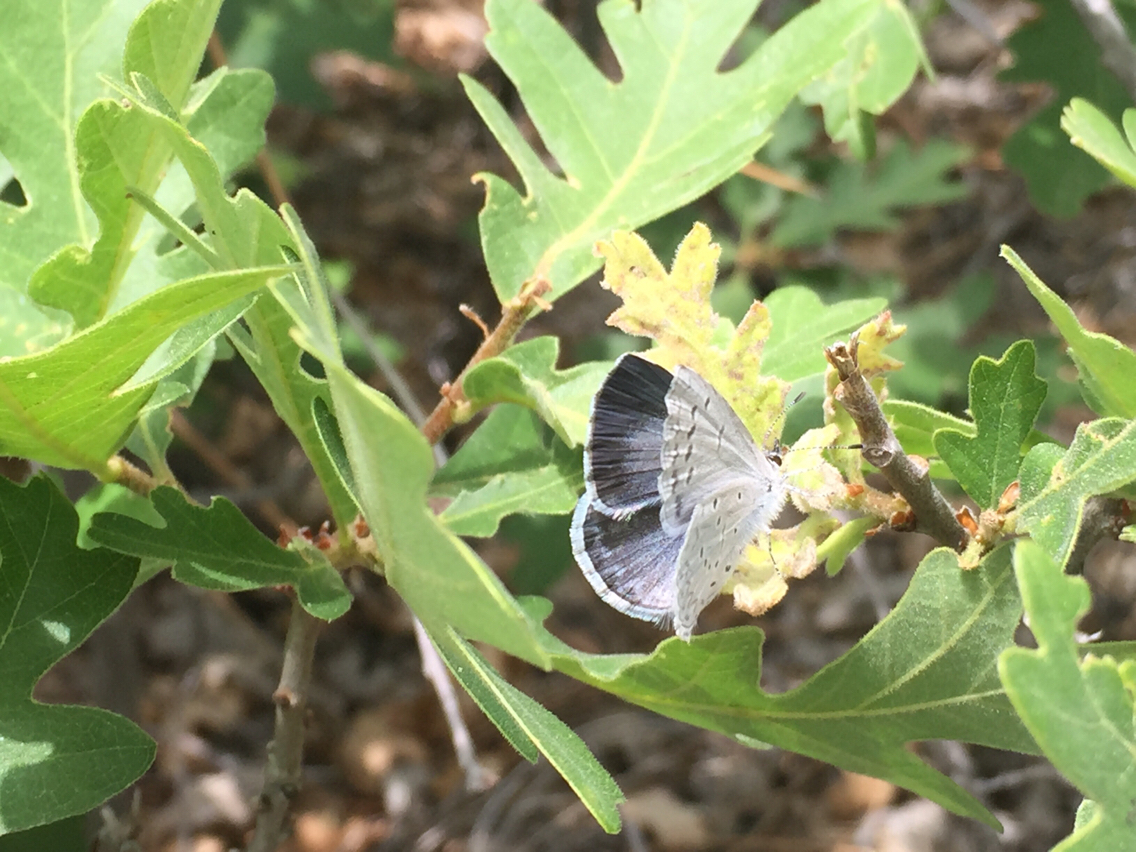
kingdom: Animalia
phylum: Arthropoda
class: Insecta
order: Lepidoptera
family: Lycaenidae
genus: Celastrina
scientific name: Celastrina argiolus
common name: Holly blue
